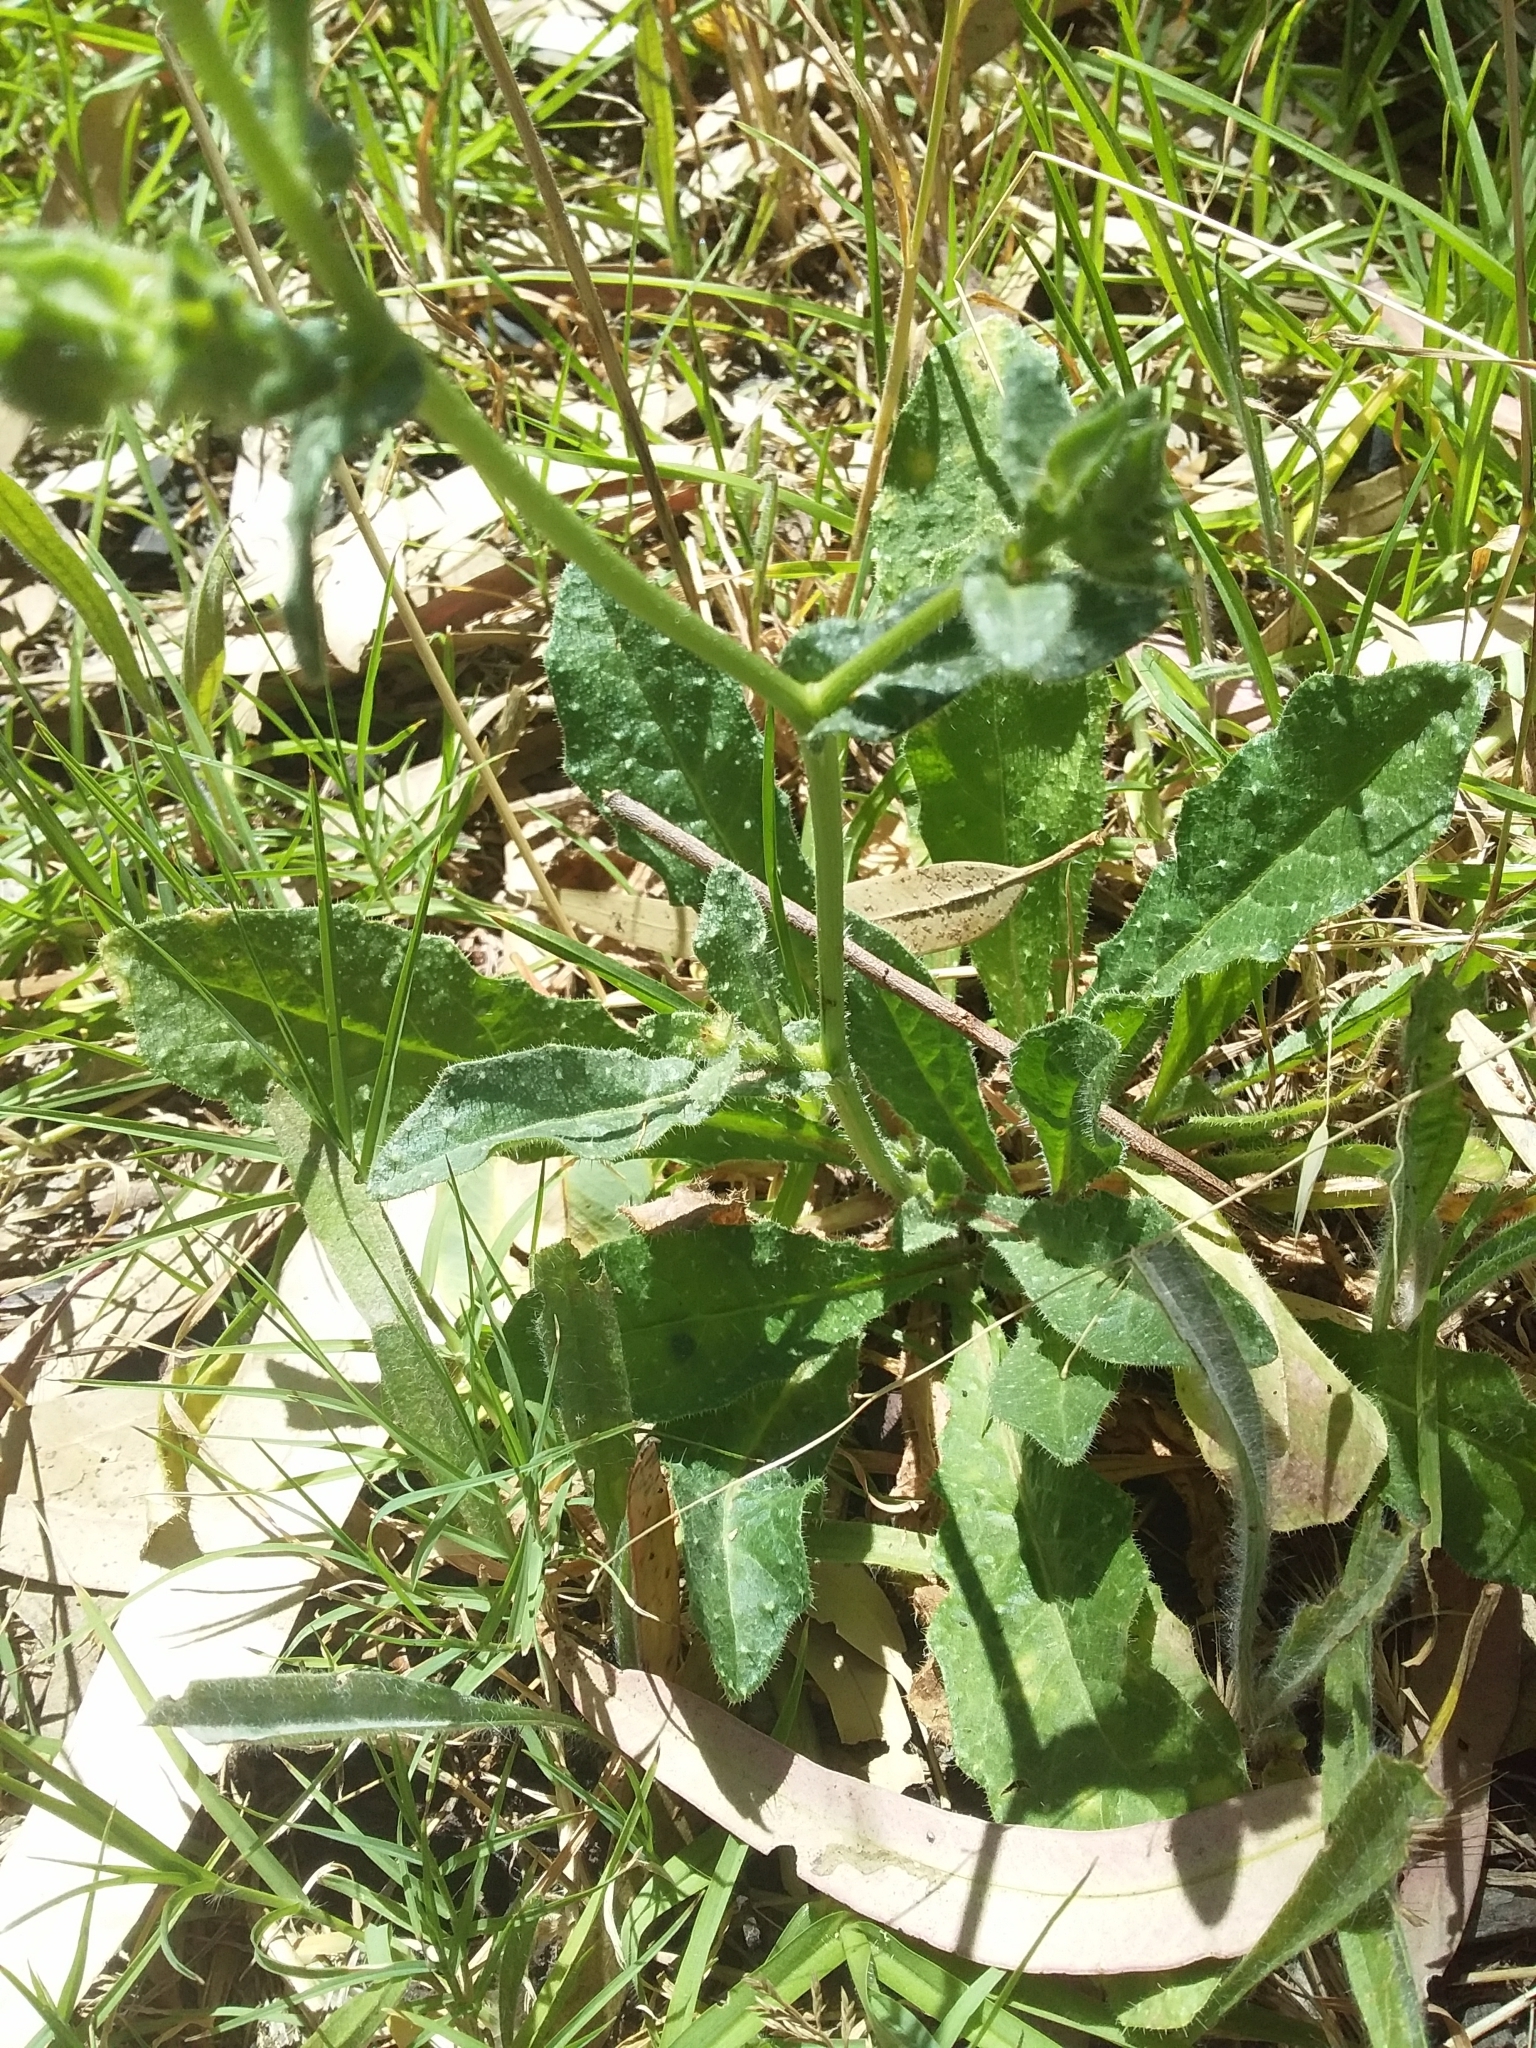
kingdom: Plantae
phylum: Tracheophyta
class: Magnoliopsida
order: Asterales
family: Asteraceae
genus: Helminthotheca
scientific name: Helminthotheca echioides
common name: Ox-tongue
